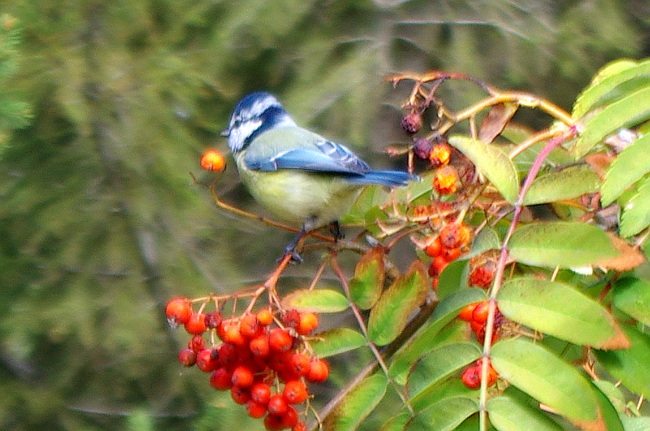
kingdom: Animalia
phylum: Chordata
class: Aves
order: Passeriformes
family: Paridae
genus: Cyanistes
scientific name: Cyanistes caeruleus
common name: Eurasian blue tit
